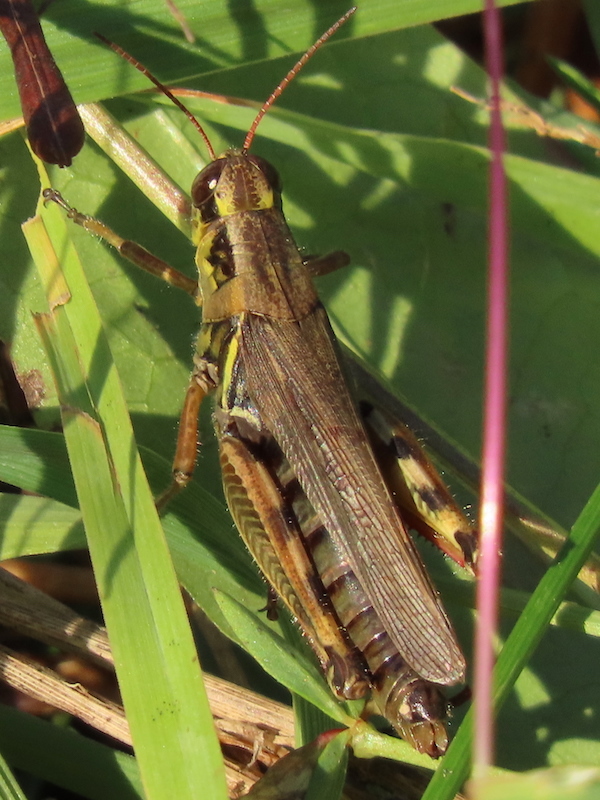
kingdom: Animalia
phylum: Arthropoda
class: Insecta
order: Orthoptera
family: Acrididae
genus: Melanoplus
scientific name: Melanoplus femurrubrum
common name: Red-legged grasshopper
